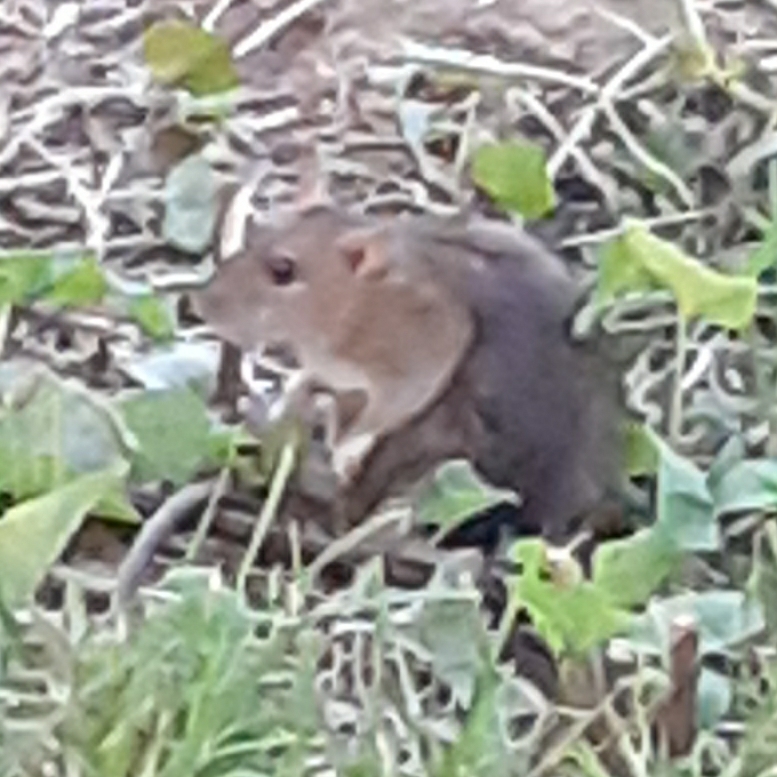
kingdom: Animalia
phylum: Chordata
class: Mammalia
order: Rodentia
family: Muridae
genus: Rattus
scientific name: Rattus norvegicus
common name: Brown rat
